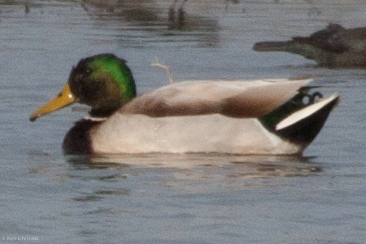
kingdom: Animalia
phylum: Chordata
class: Aves
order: Anseriformes
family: Anatidae
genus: Anas
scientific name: Anas platyrhynchos
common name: Mallard
